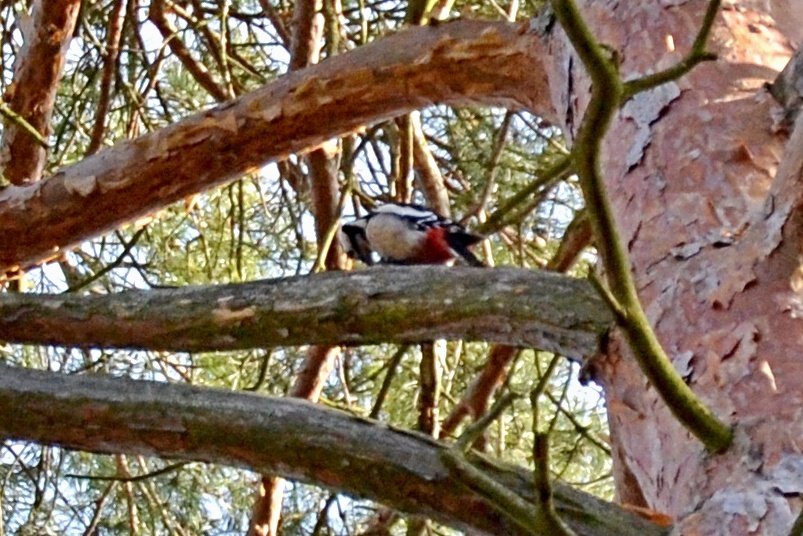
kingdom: Animalia
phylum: Chordata
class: Aves
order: Piciformes
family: Picidae
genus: Dendrocopos
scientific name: Dendrocopos major
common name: Great spotted woodpecker
